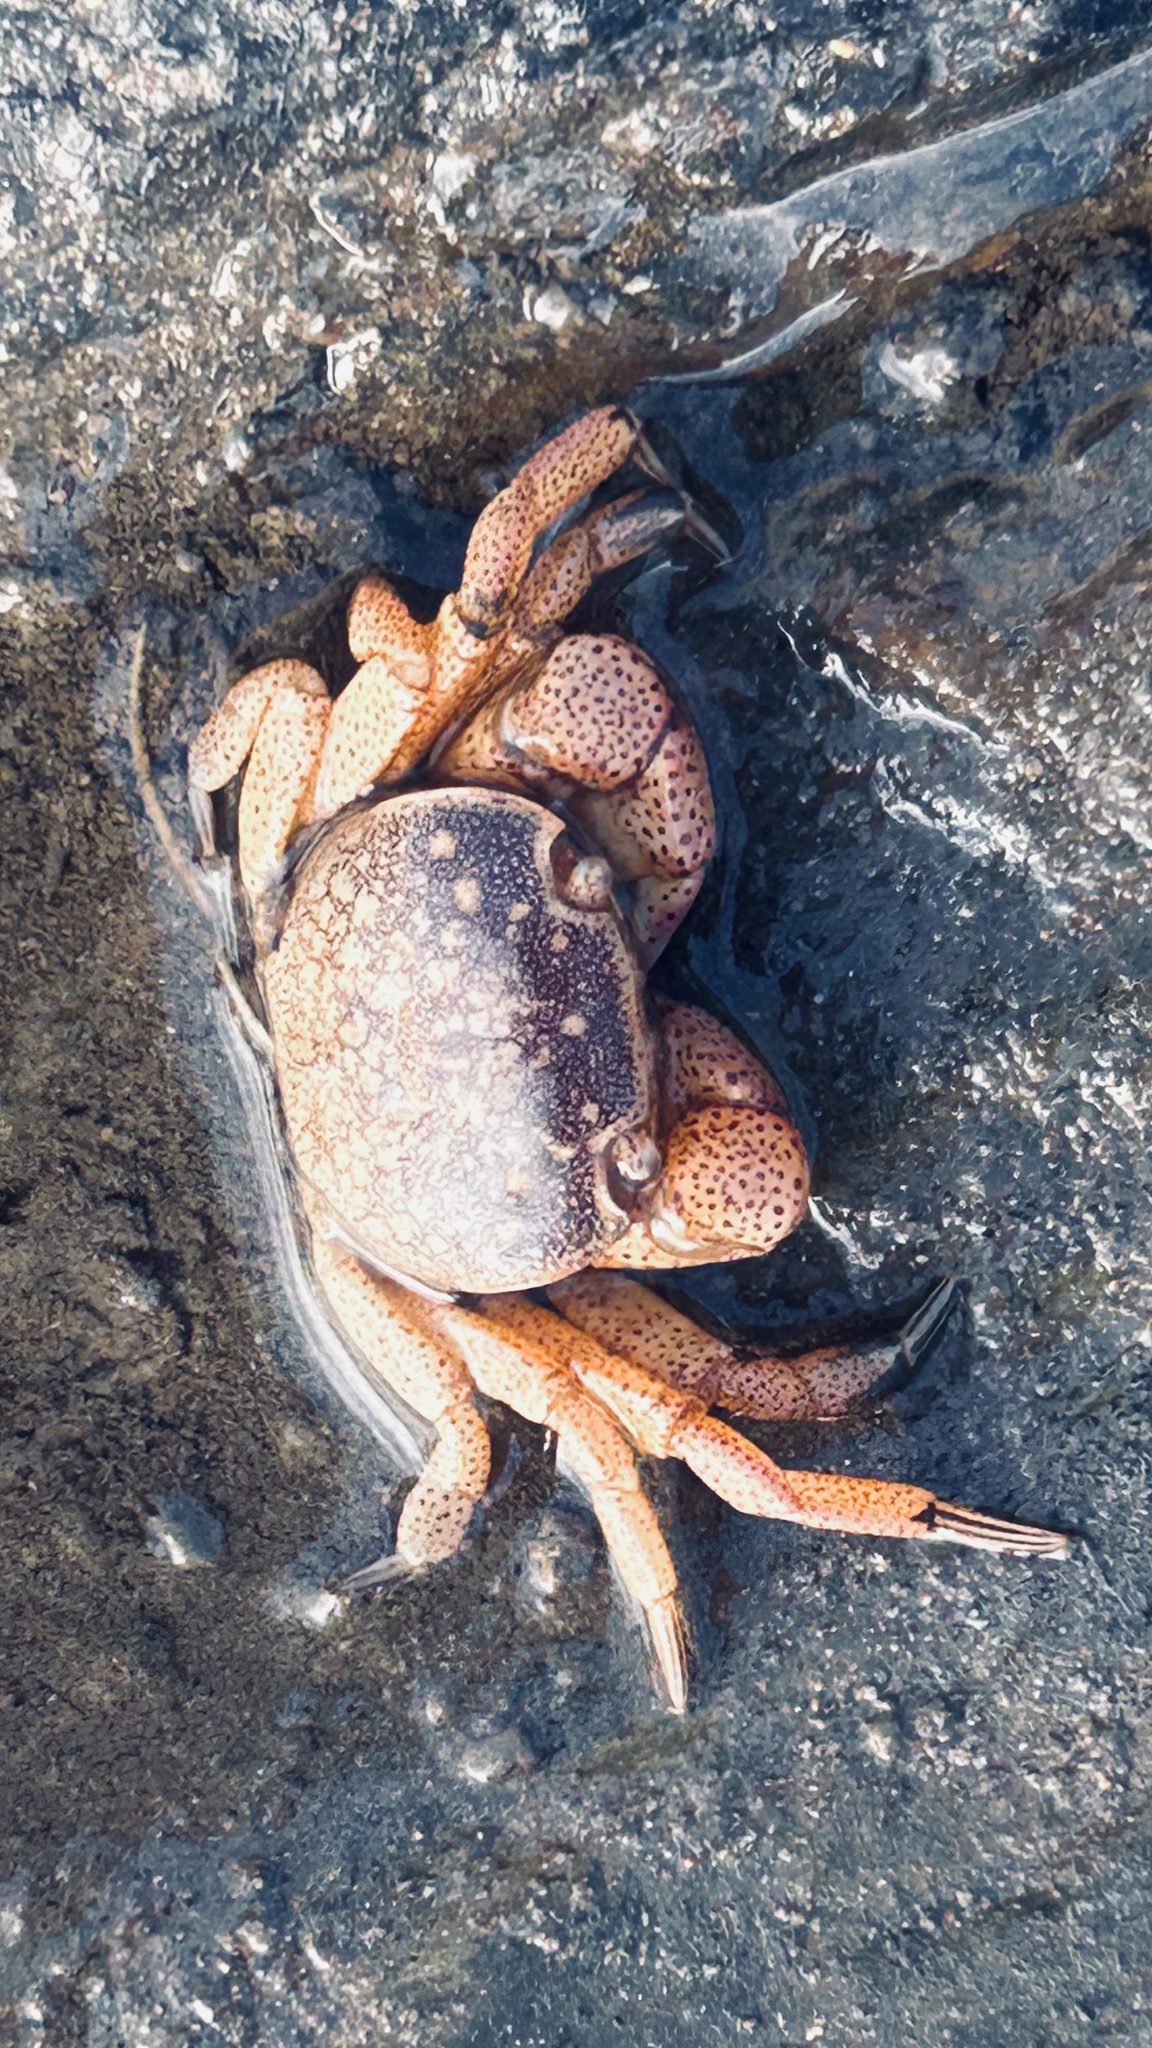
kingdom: Animalia
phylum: Arthropoda
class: Malacostraca
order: Decapoda
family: Varunidae
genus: Cyclograpsus
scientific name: Cyclograpsus punctatus
